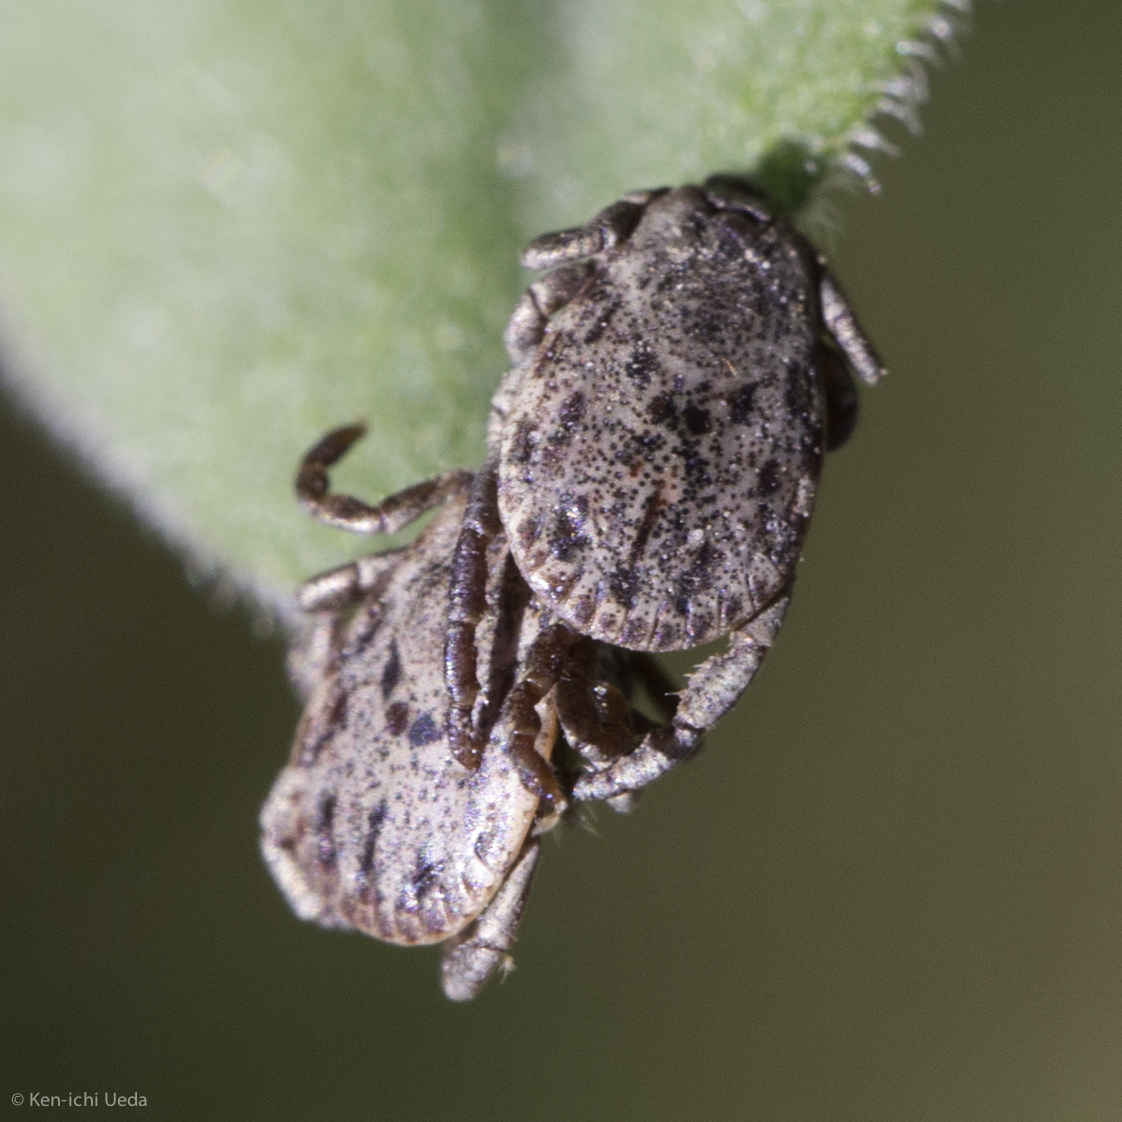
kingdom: Animalia
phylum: Arthropoda
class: Arachnida
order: Ixodida
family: Ixodidae
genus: Dermacentor
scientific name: Dermacentor occidentalis
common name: Net tick
